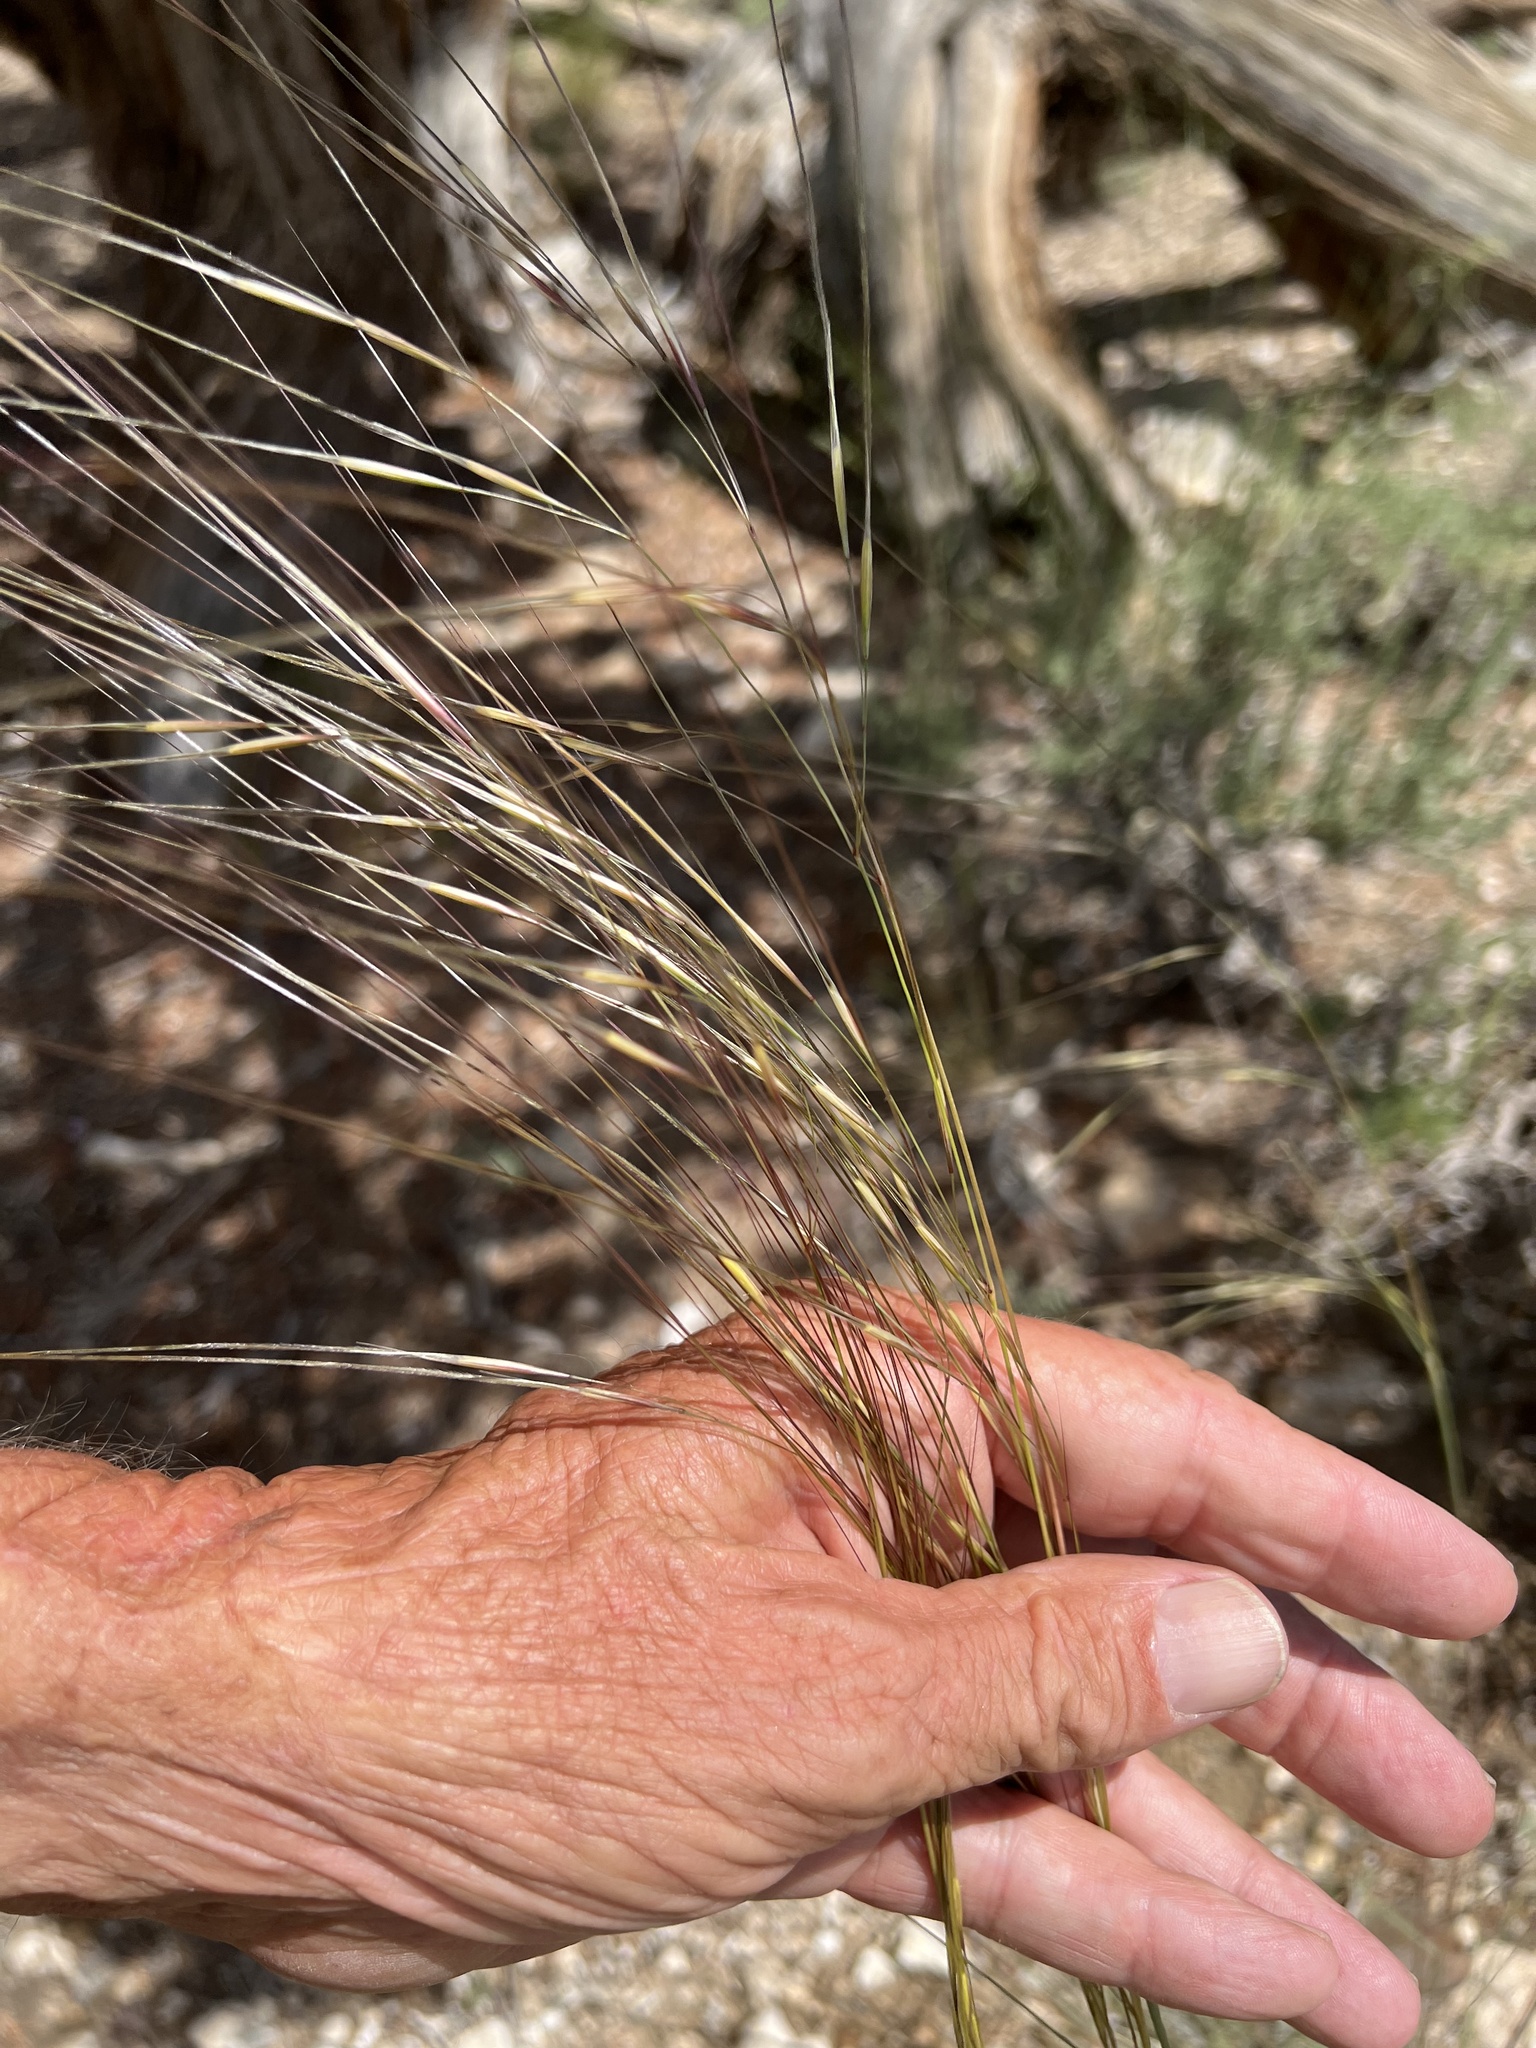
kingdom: Plantae
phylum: Tracheophyta
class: Liliopsida
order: Poales
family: Poaceae
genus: Hesperostipa
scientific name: Hesperostipa comata
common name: Needle-and-thread grass
